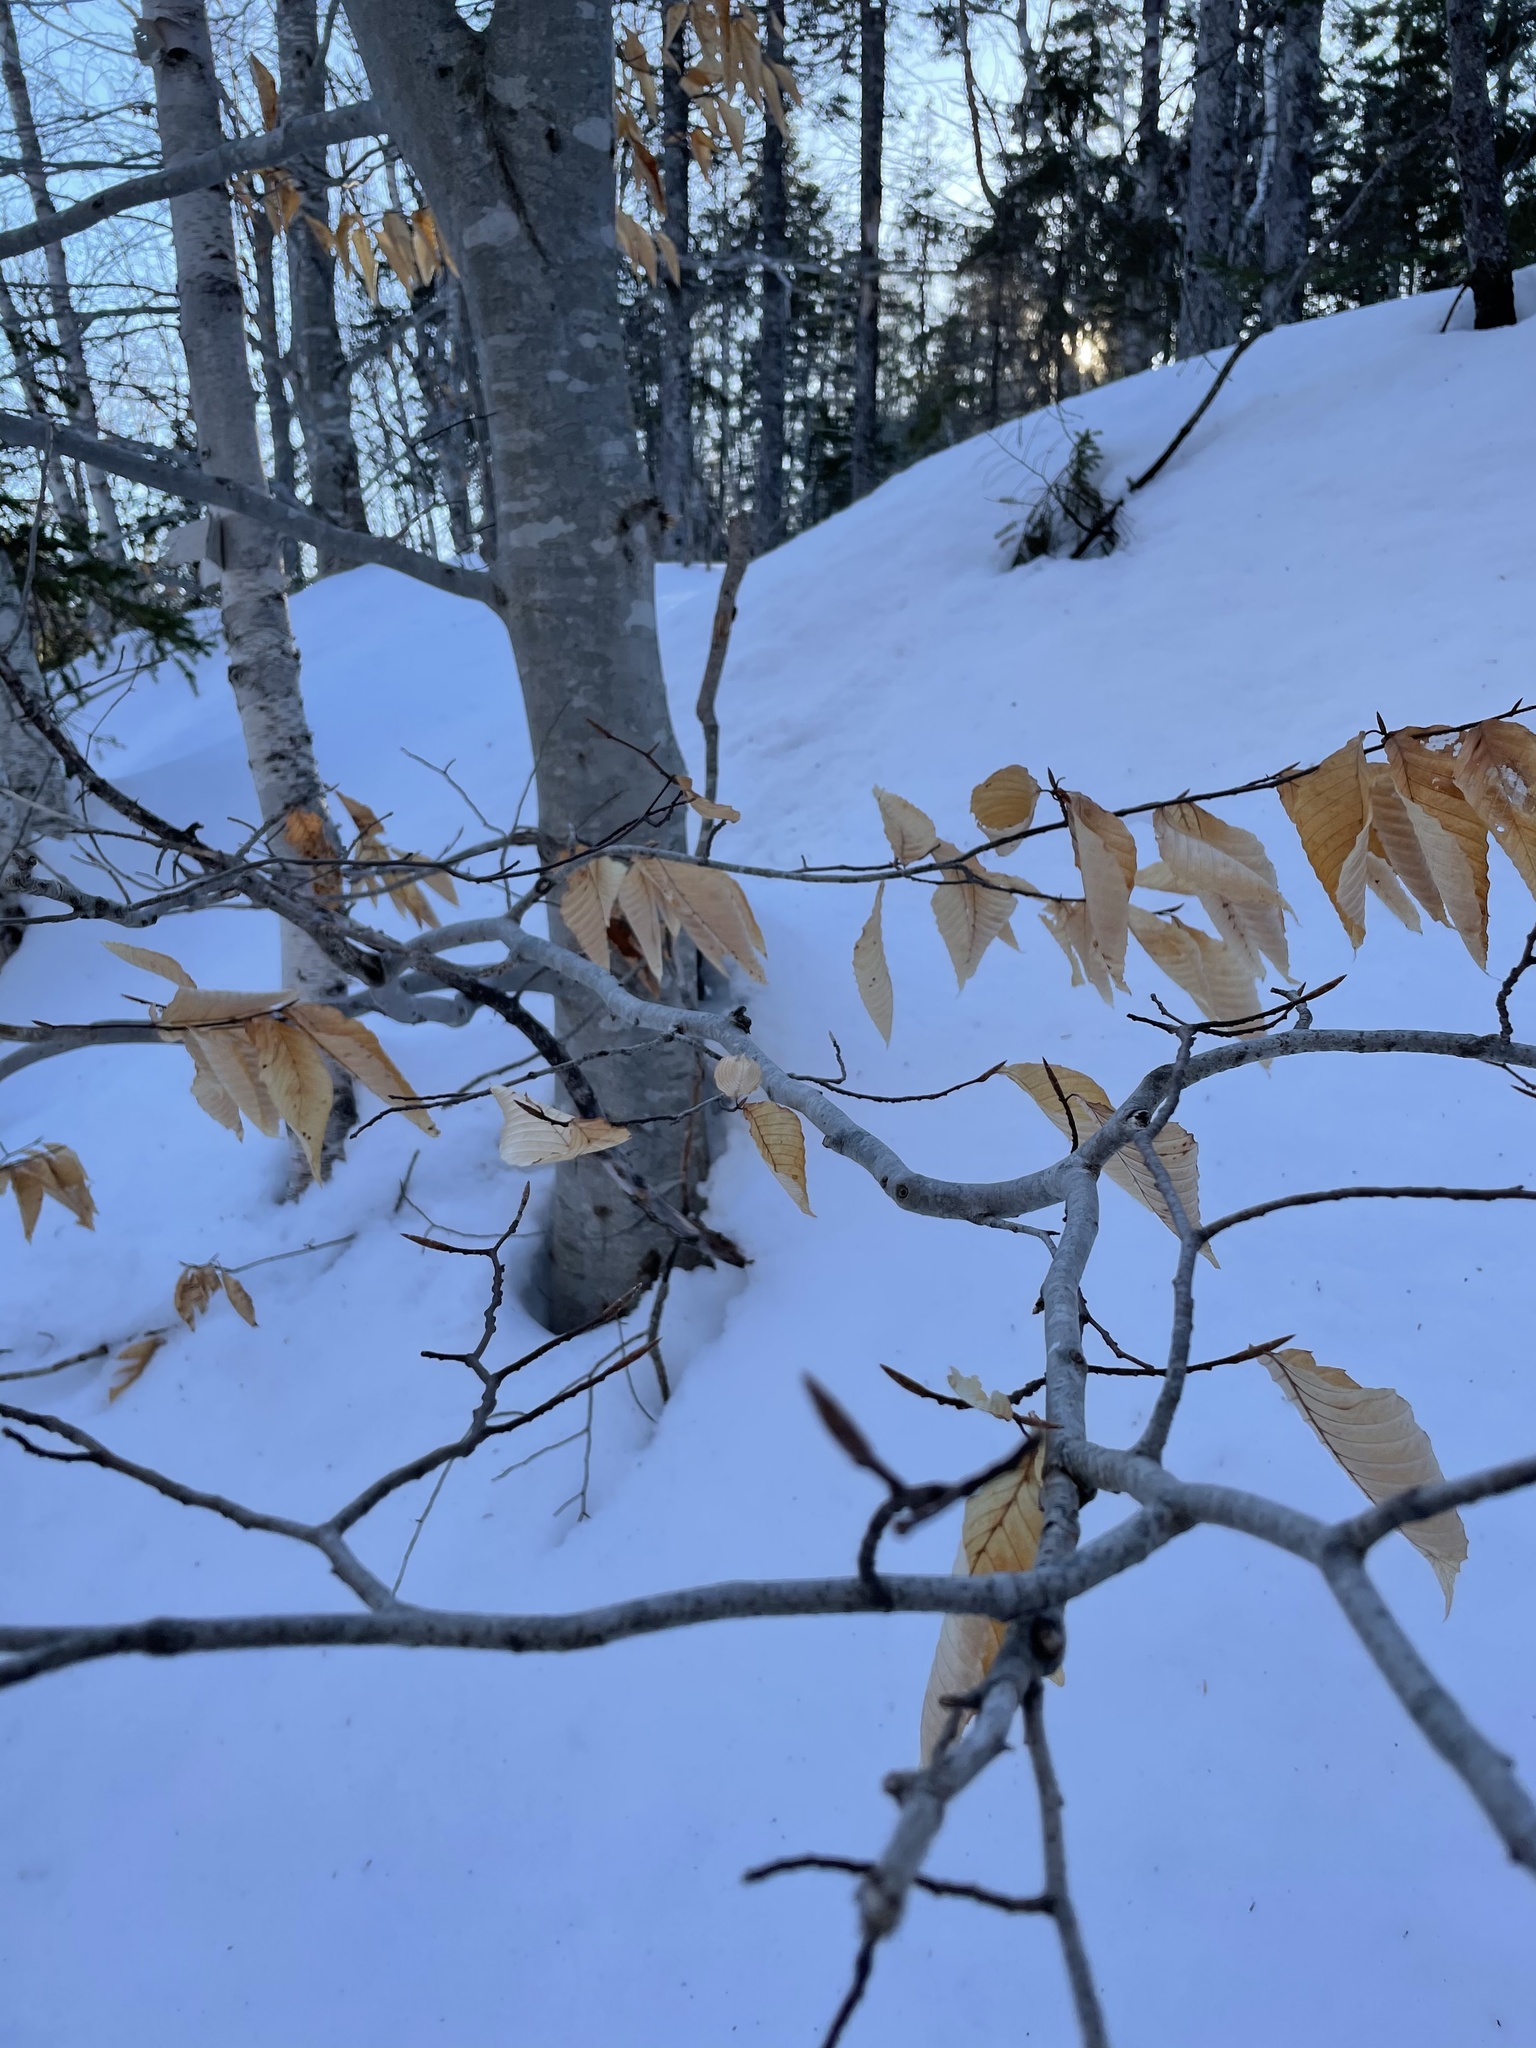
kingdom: Plantae
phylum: Tracheophyta
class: Magnoliopsida
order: Fagales
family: Fagaceae
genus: Fagus
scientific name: Fagus grandifolia
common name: American beech
